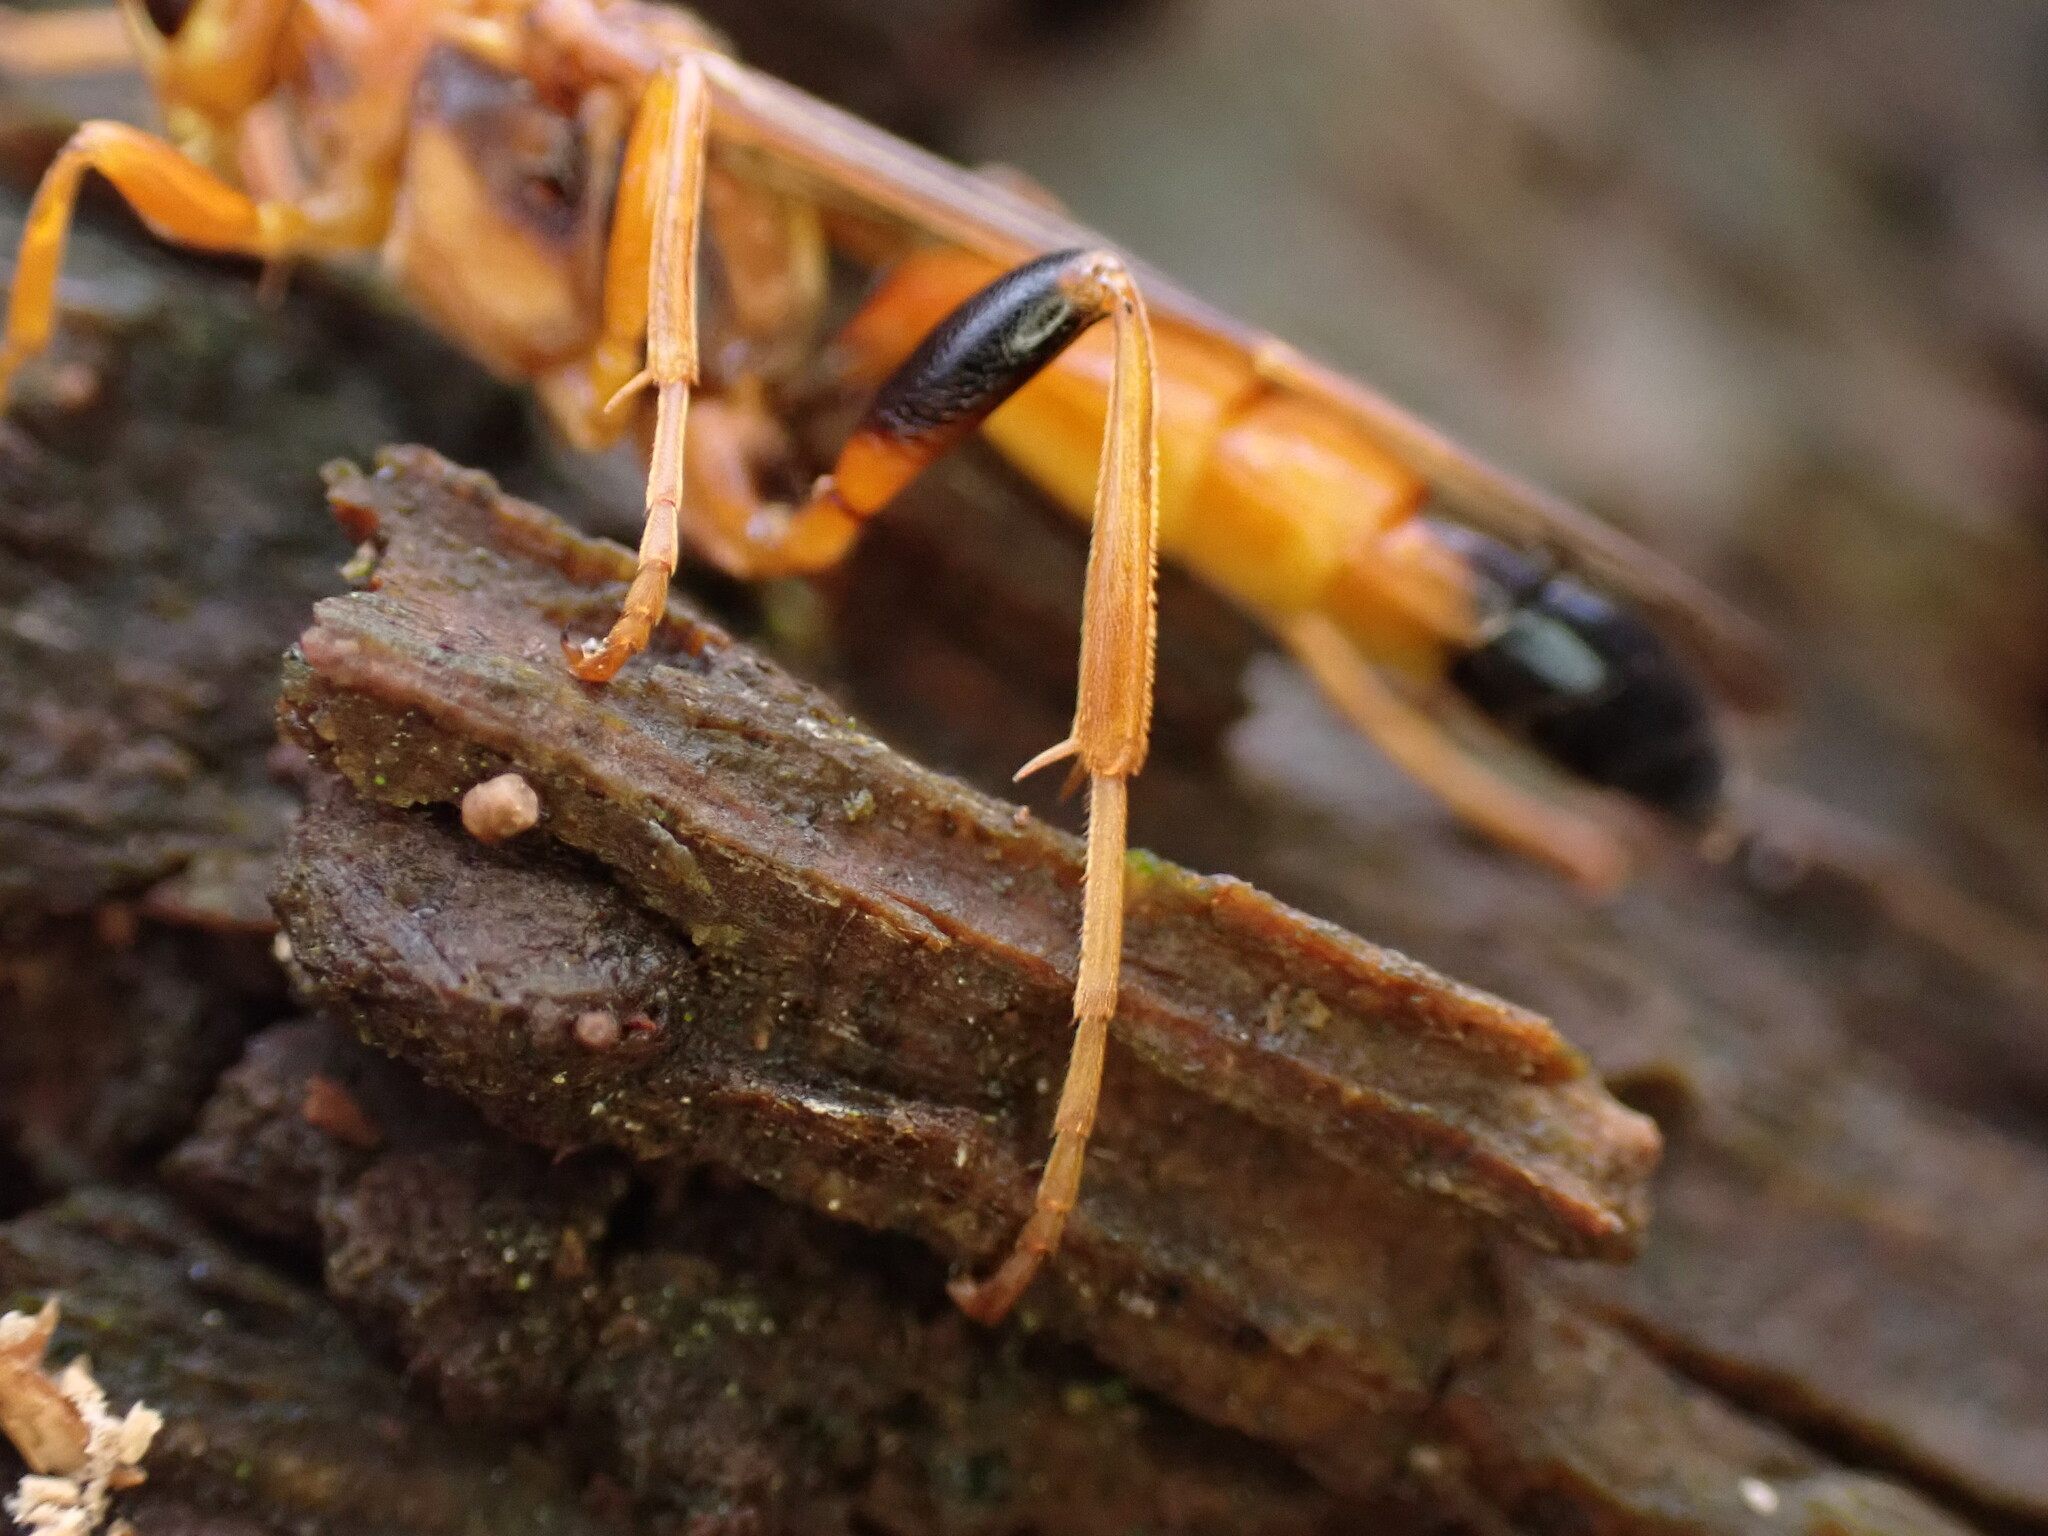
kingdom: Animalia
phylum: Arthropoda
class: Insecta
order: Hymenoptera
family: Ichneumonidae
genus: Lymantrichneumon
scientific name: Lymantrichneumon disparis
